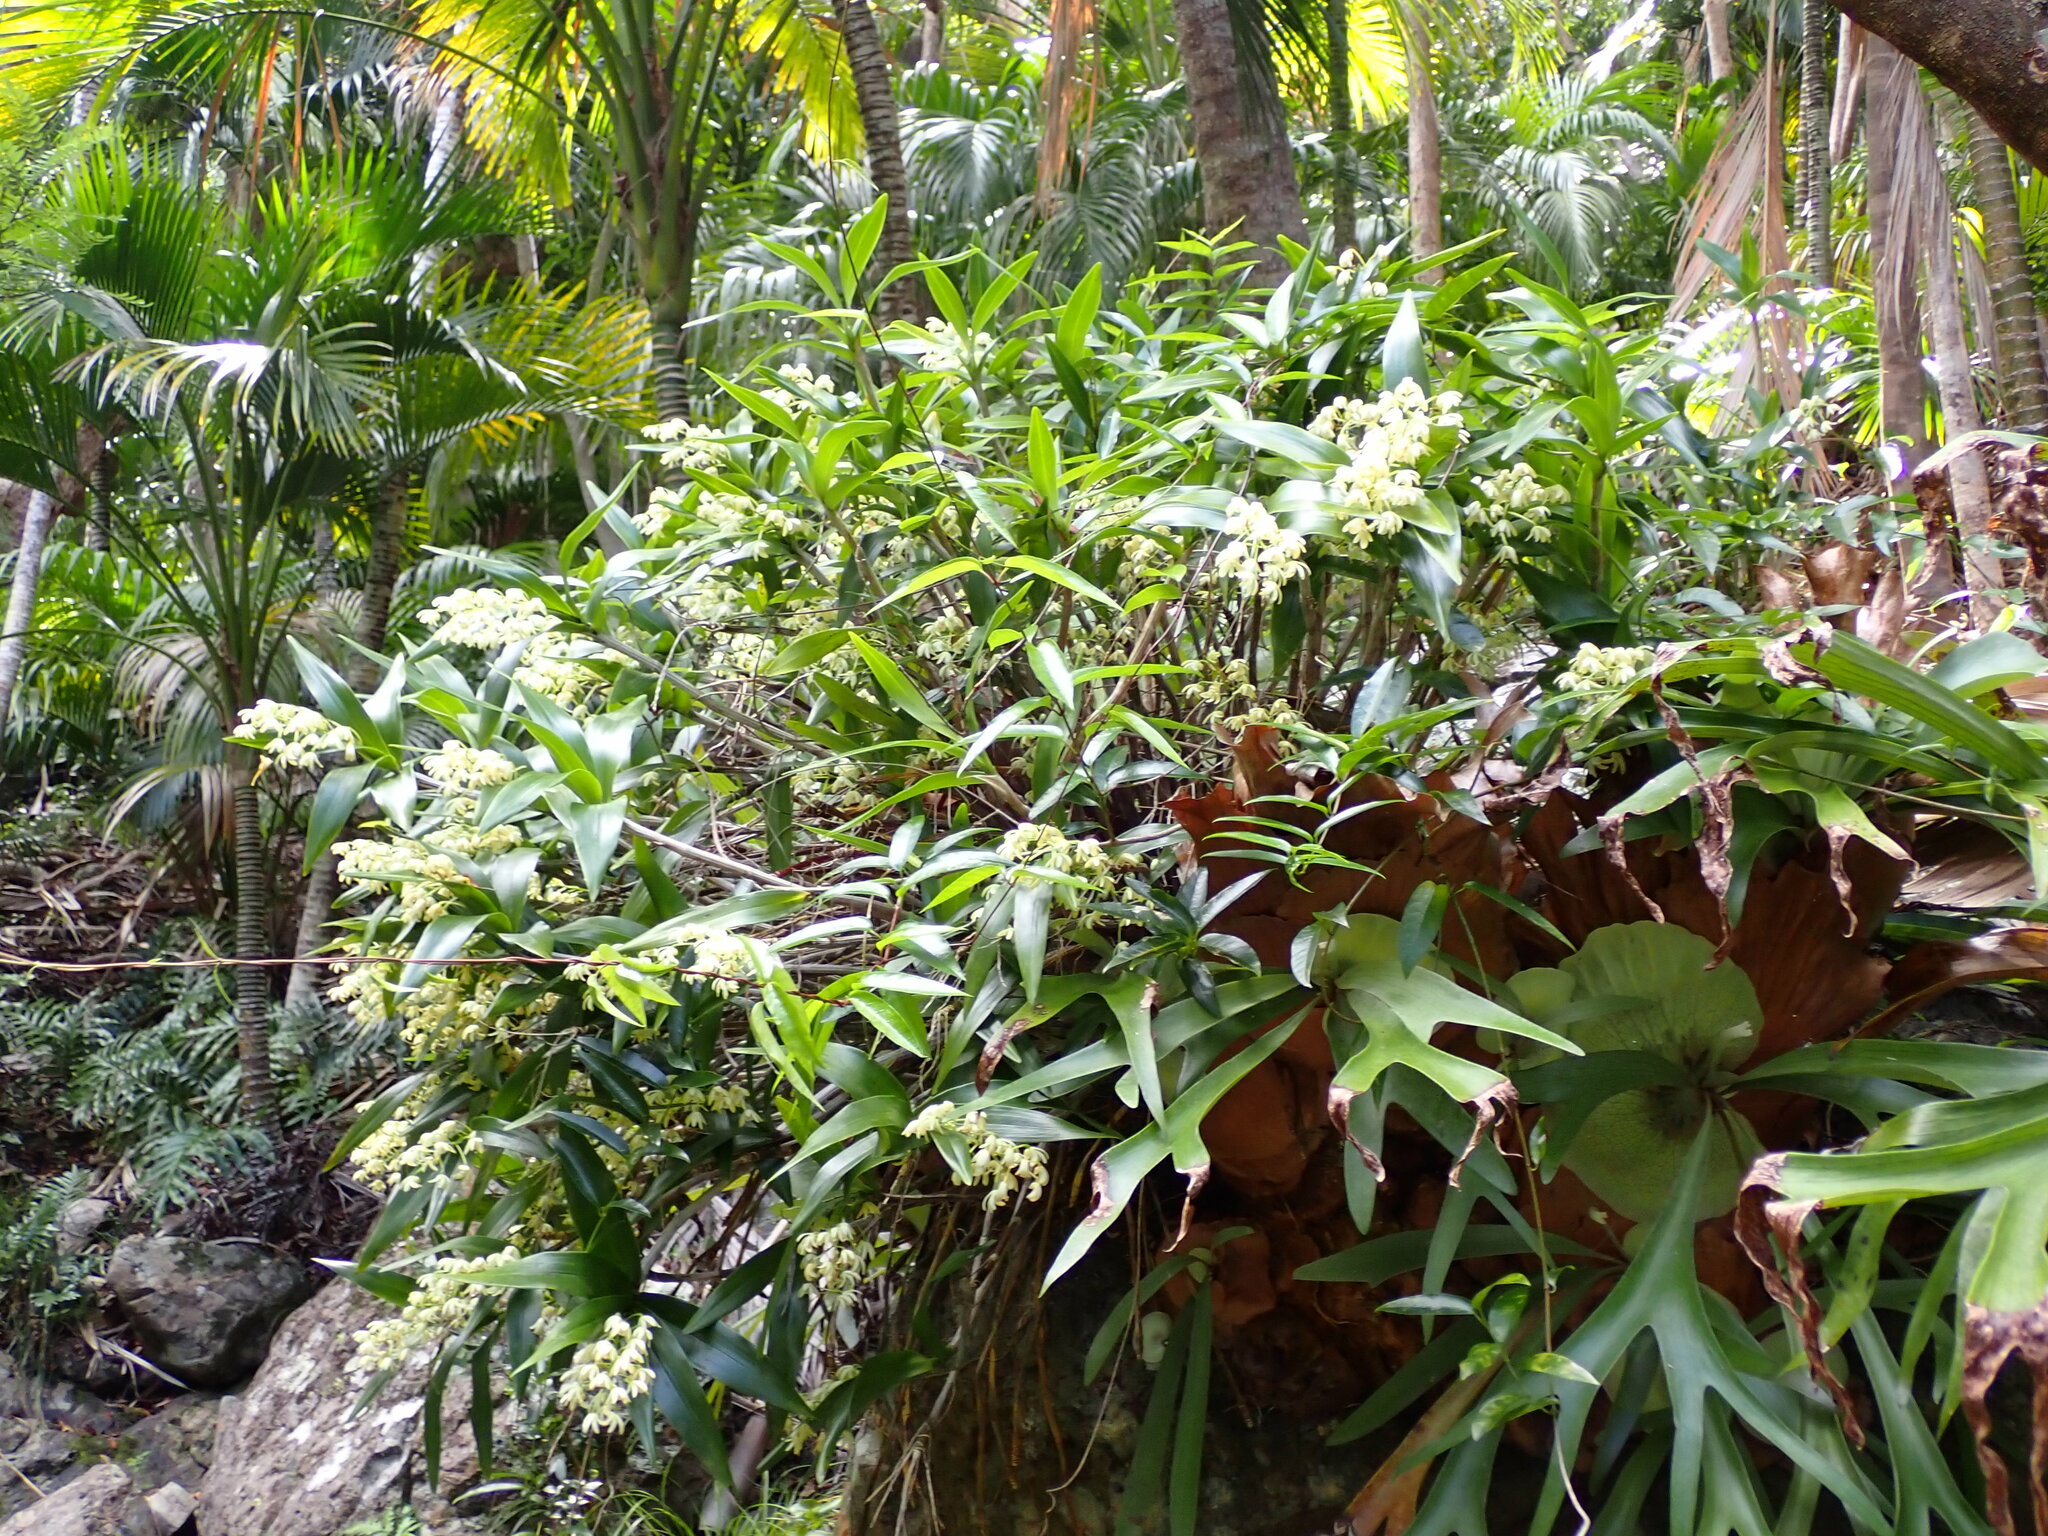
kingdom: Plantae
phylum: Tracheophyta
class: Polypodiopsida
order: Polypodiales
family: Polypodiaceae
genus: Platycerium
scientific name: Platycerium bifurcatum
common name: Elkhorn fern
